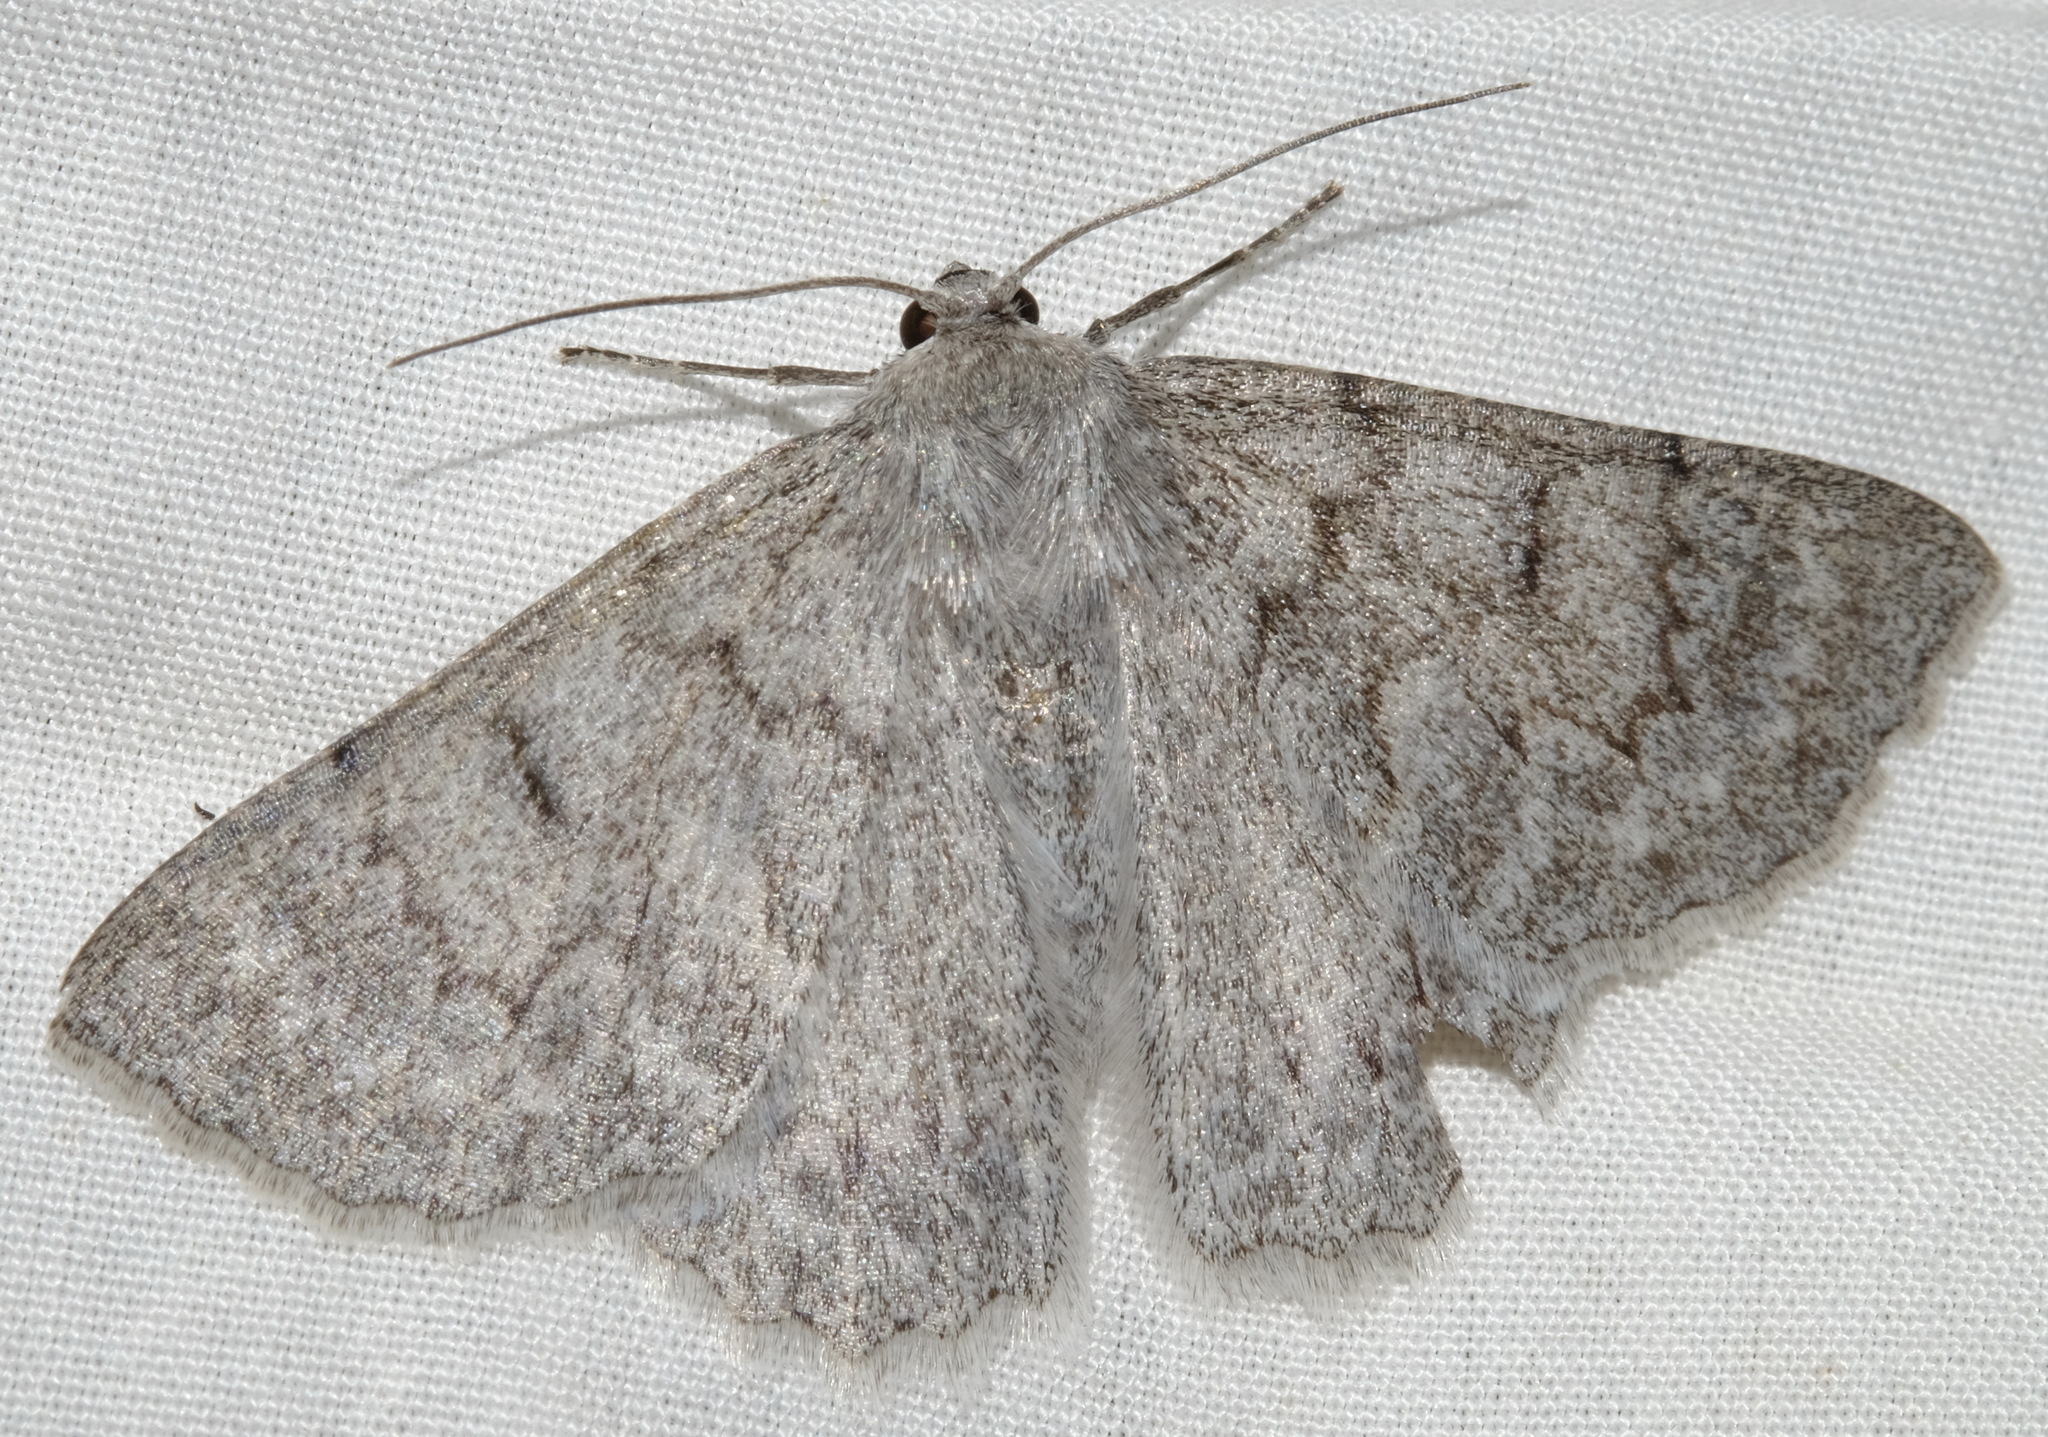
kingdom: Animalia
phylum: Arthropoda
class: Insecta
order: Lepidoptera
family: Geometridae
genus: Crypsiphona
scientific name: Crypsiphona ocultaria
